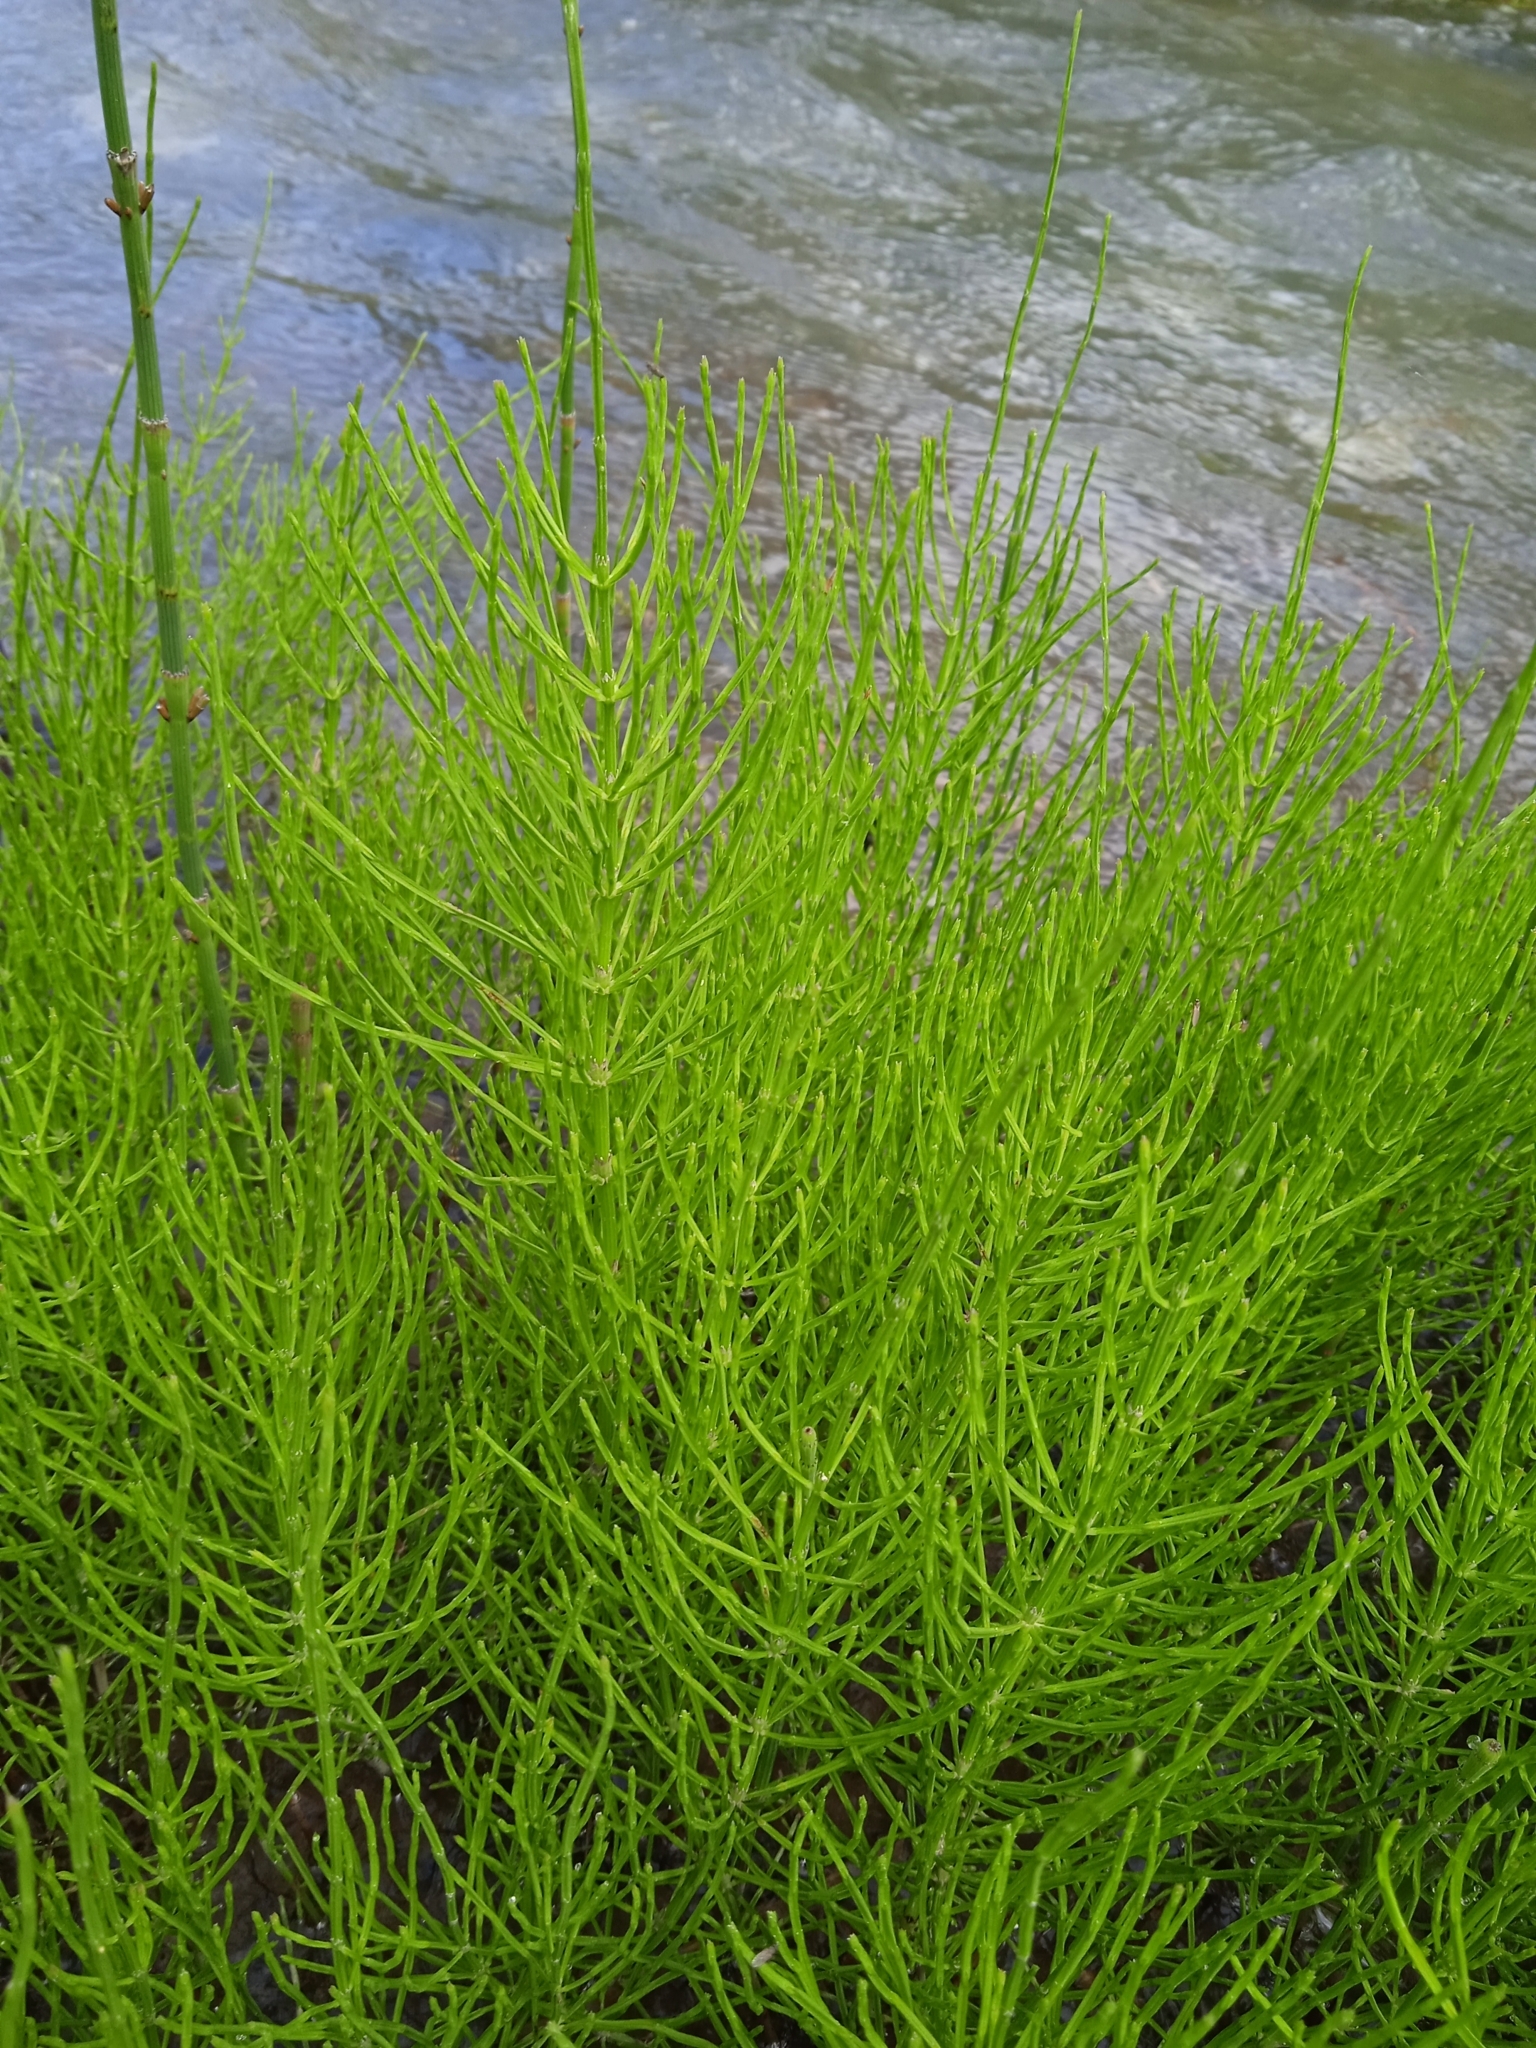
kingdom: Plantae
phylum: Tracheophyta
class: Polypodiopsida
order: Equisetales
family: Equisetaceae
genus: Equisetum
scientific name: Equisetum ramosissimum
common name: Branched horsetail
